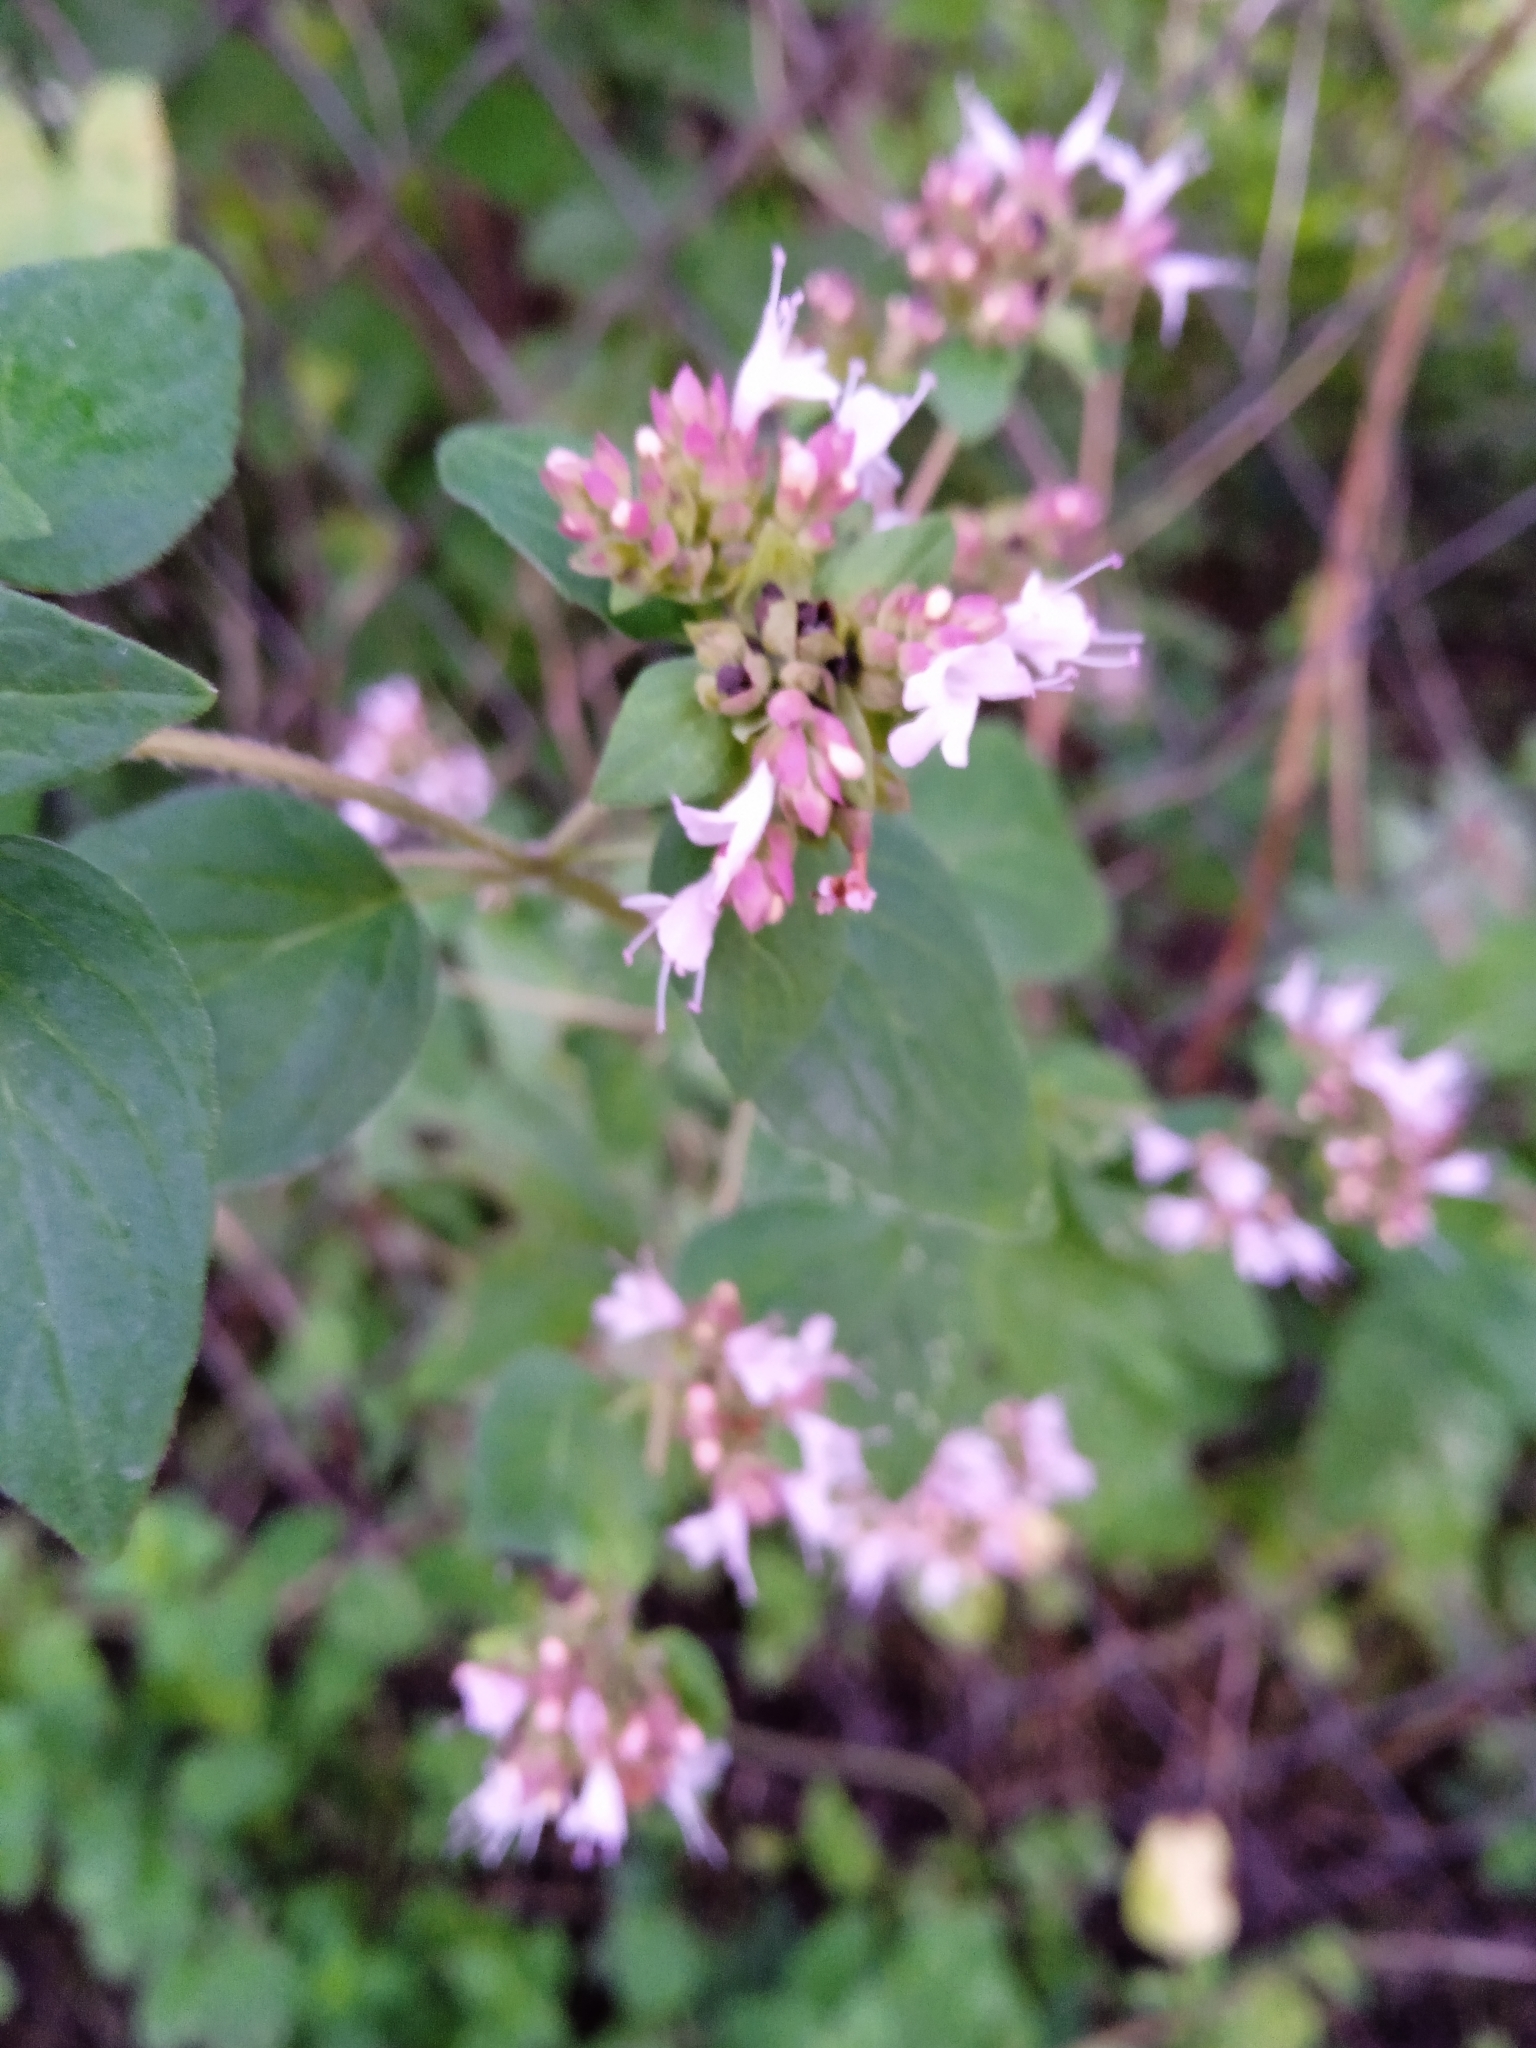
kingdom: Plantae
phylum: Tracheophyta
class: Magnoliopsida
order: Lamiales
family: Lamiaceae
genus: Origanum
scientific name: Origanum vulgare
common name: Wild marjoram
